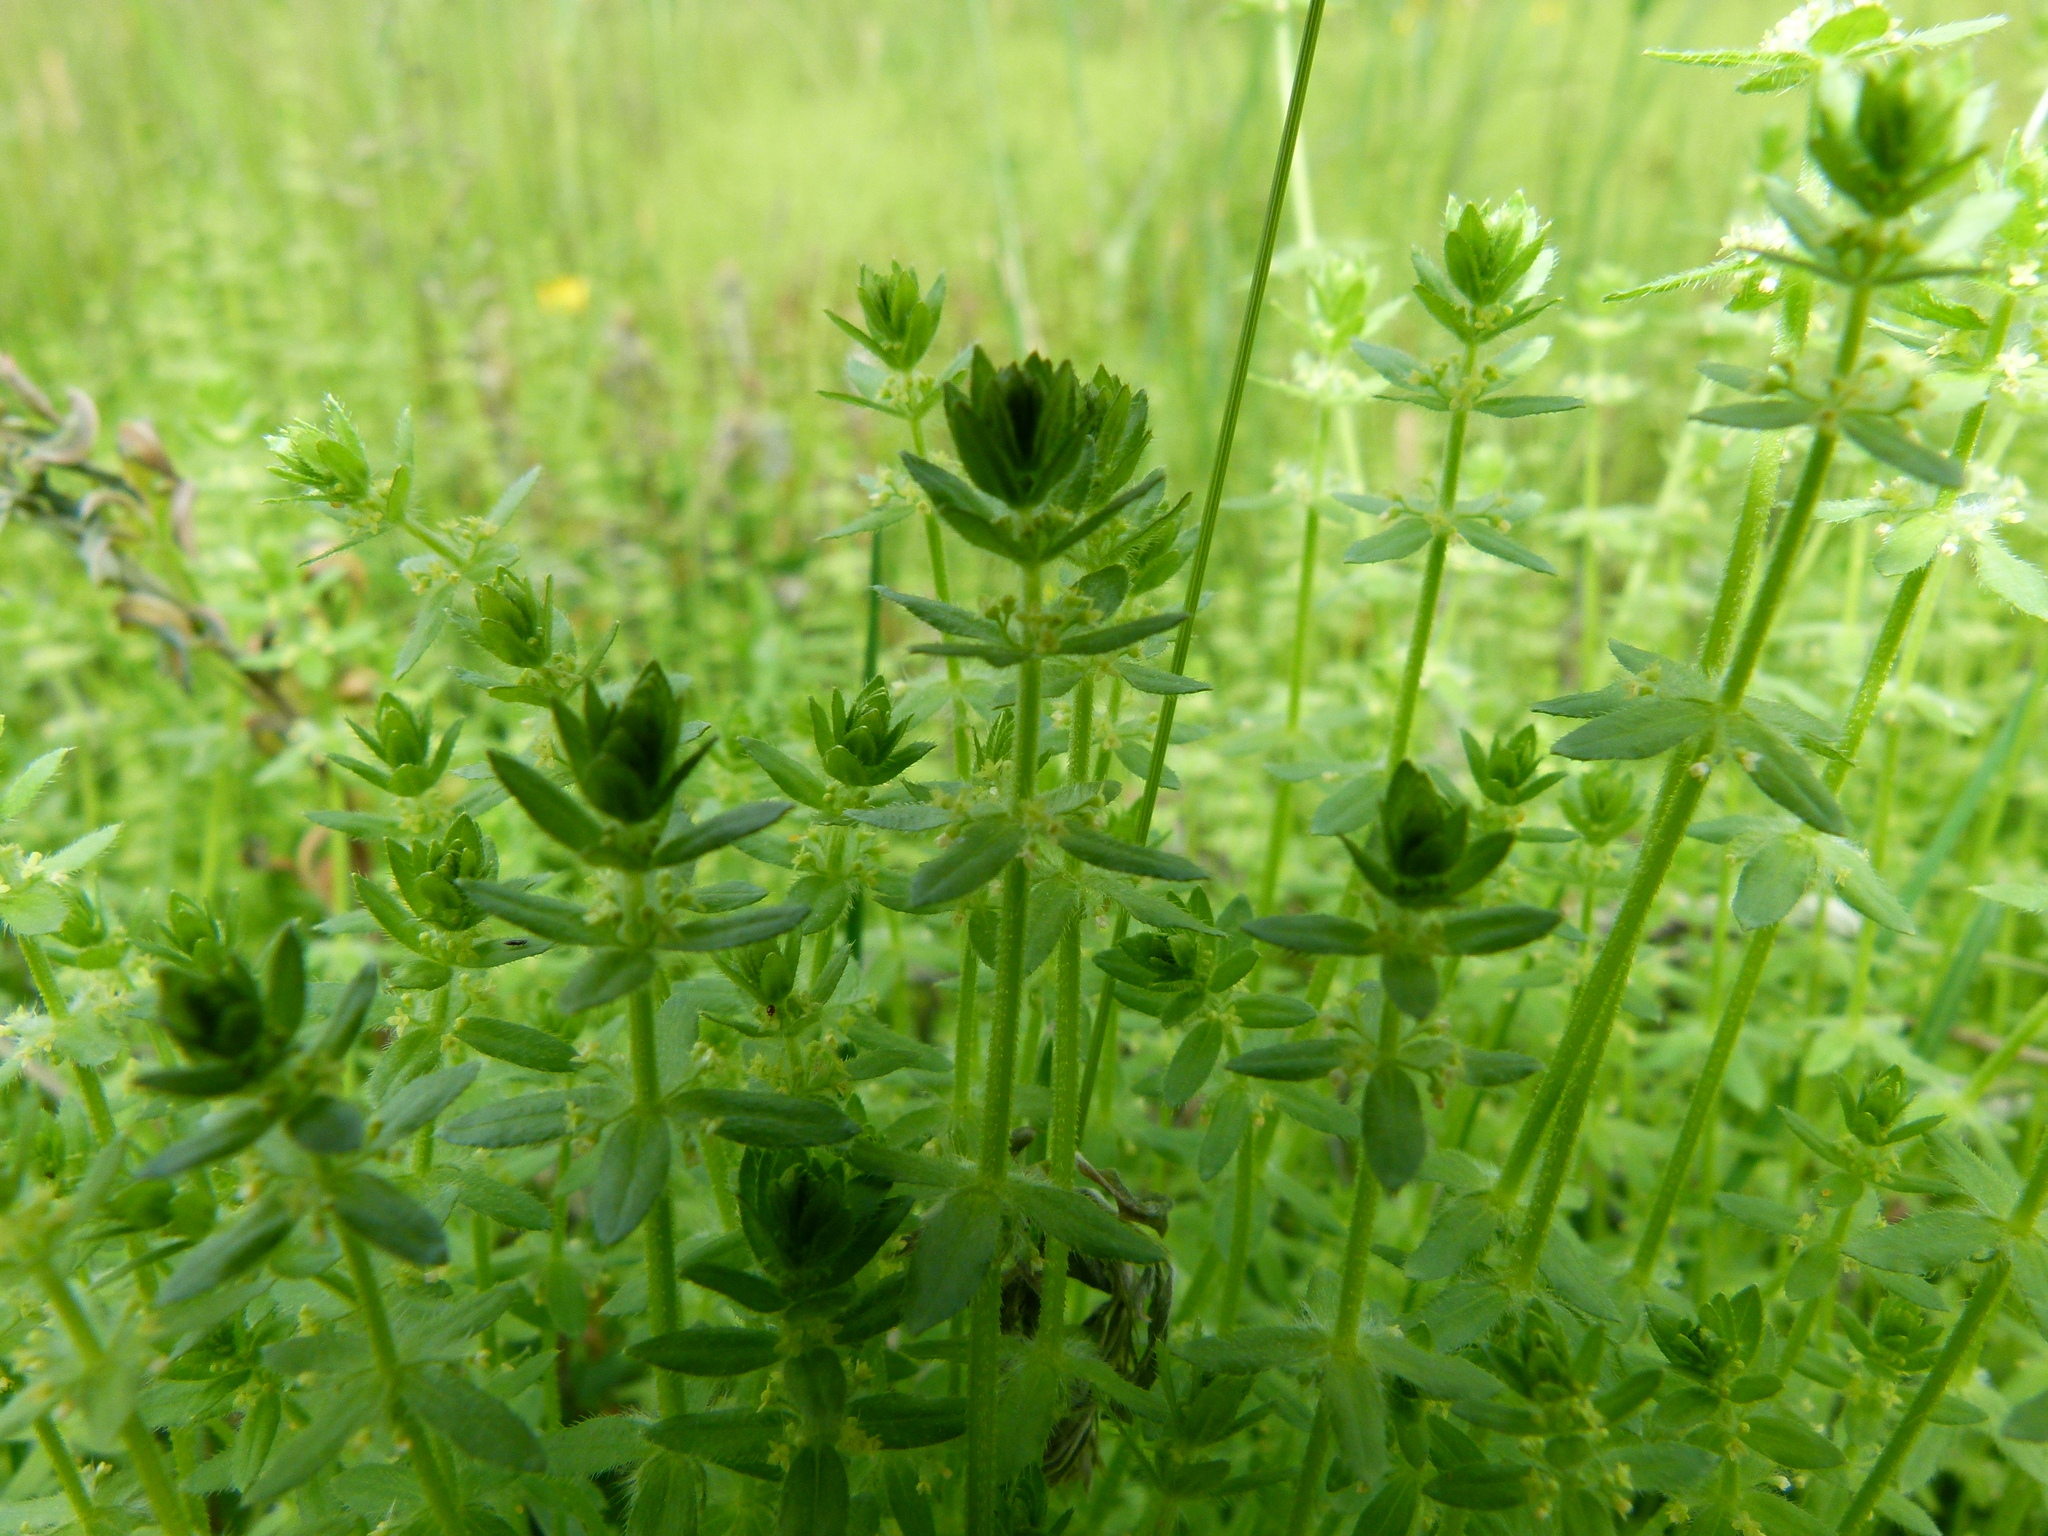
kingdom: Plantae
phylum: Tracheophyta
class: Magnoliopsida
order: Gentianales
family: Rubiaceae
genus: Cruciata
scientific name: Cruciata pedemontana
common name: Piedmont bedstraw
